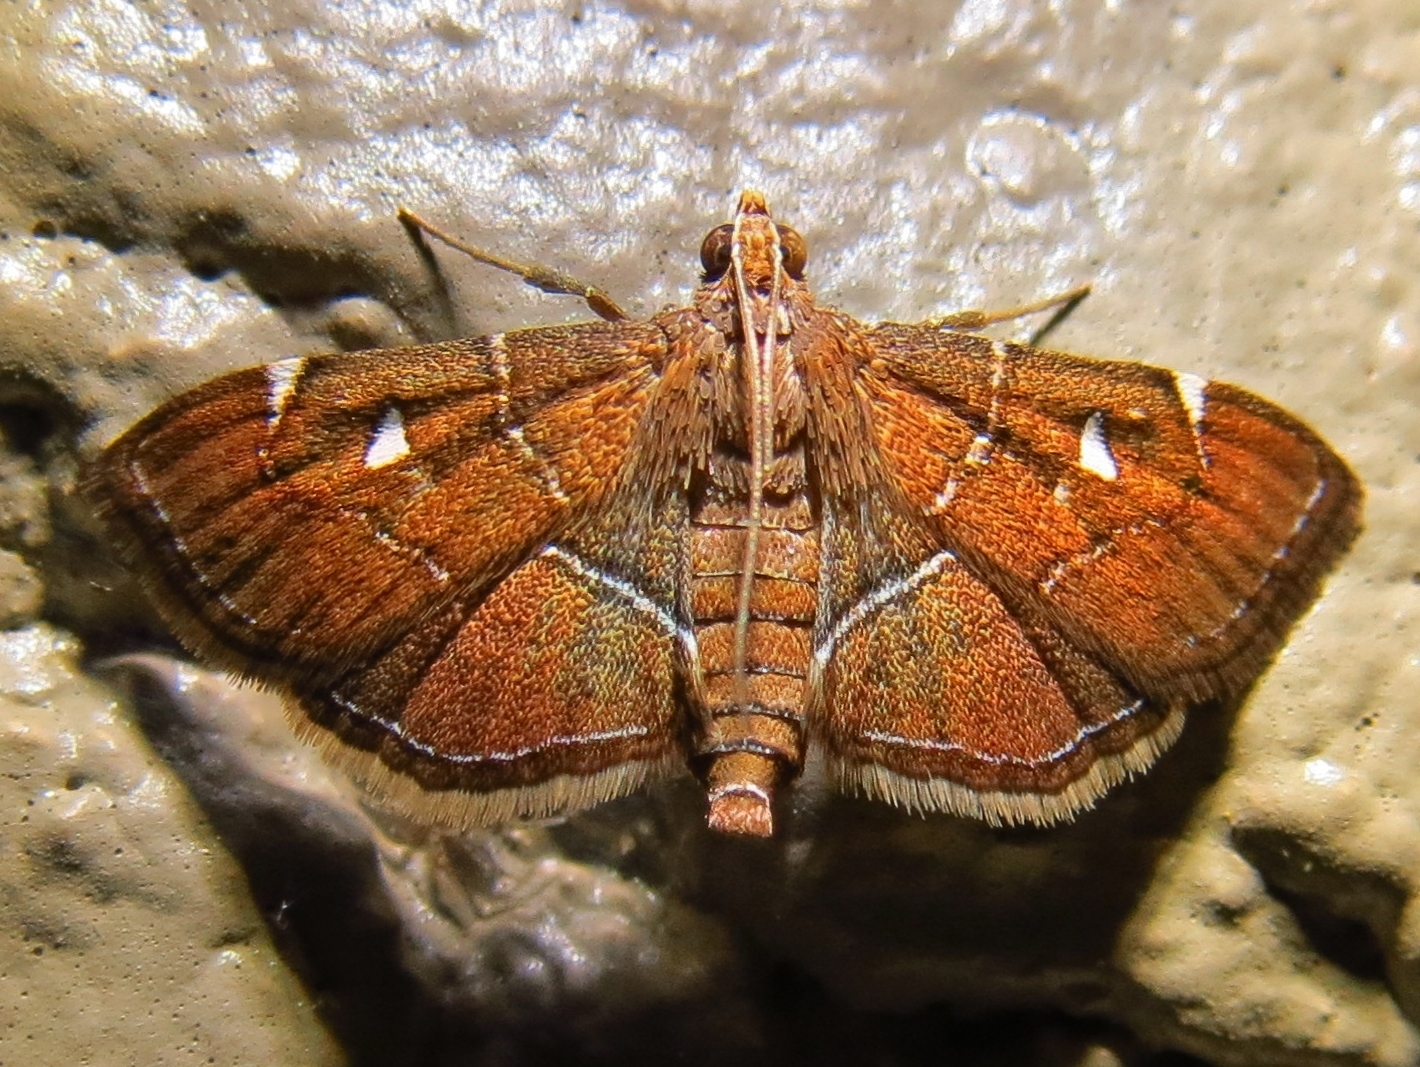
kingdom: Animalia
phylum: Arthropoda
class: Insecta
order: Lepidoptera
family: Crambidae
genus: Lamprosema
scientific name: Lamprosema victoriae
